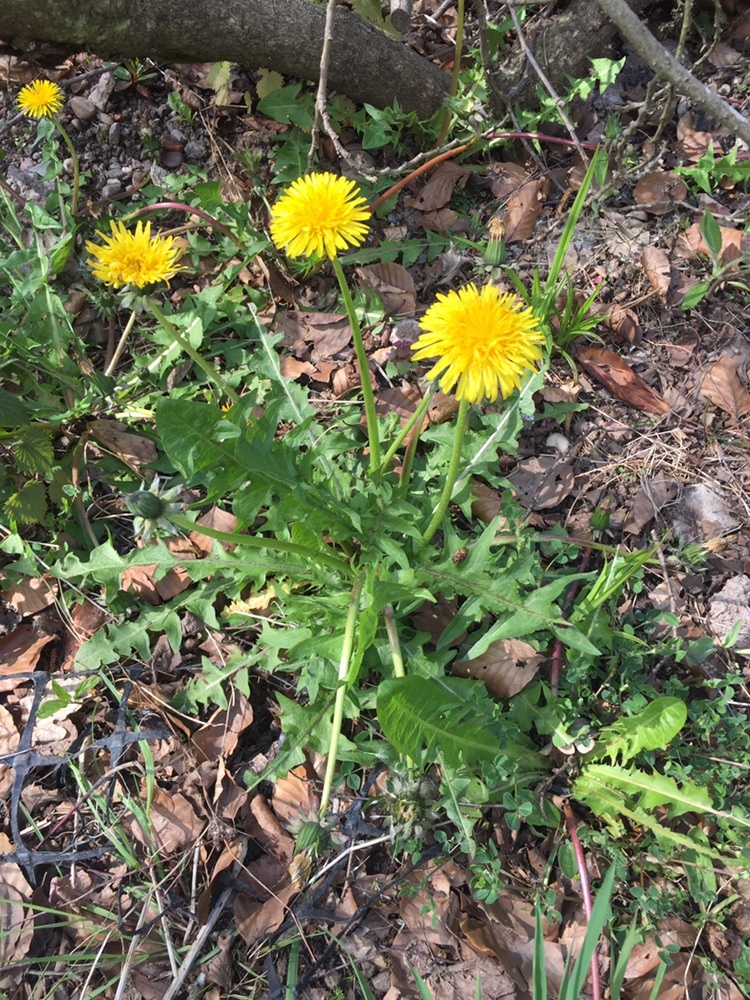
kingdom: Plantae
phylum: Tracheophyta
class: Magnoliopsida
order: Asterales
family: Asteraceae
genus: Taraxacum
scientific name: Taraxacum officinale
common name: Common dandelion
